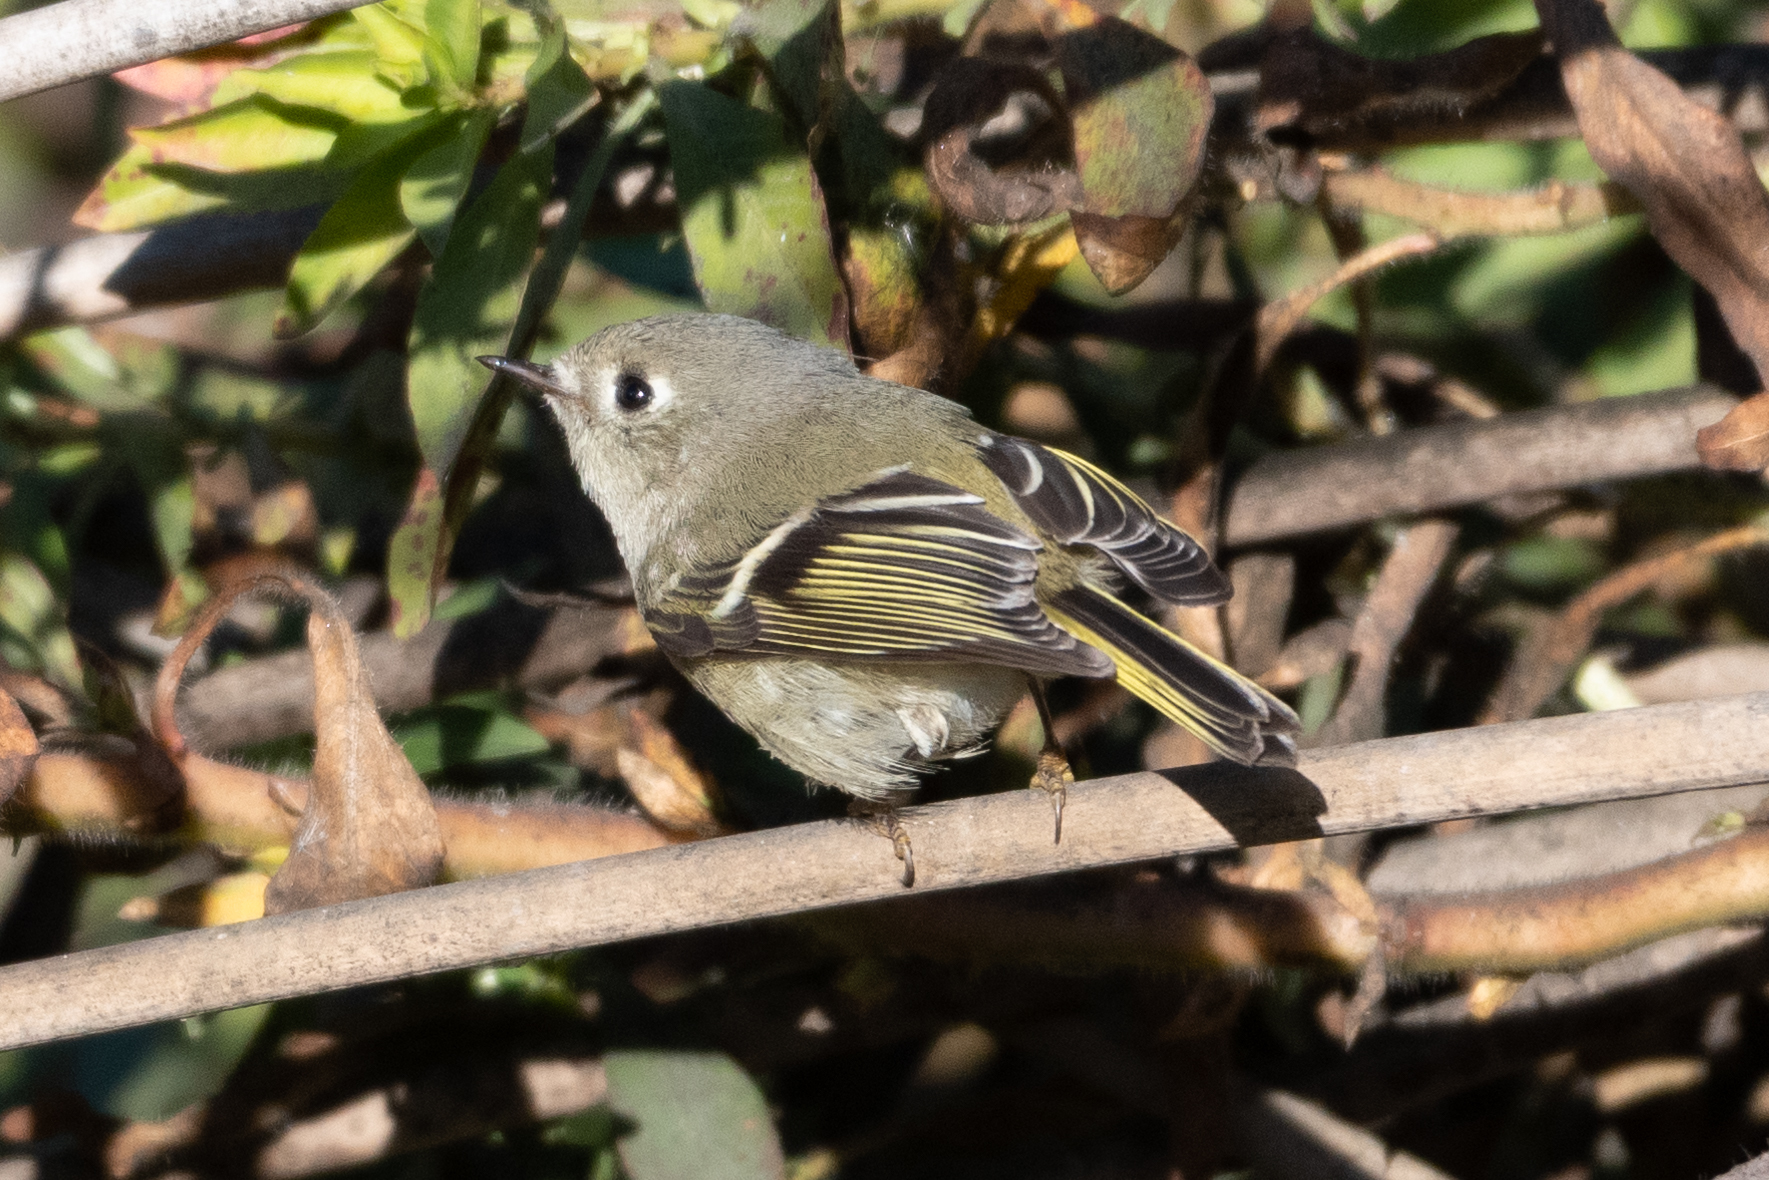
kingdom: Animalia
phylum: Chordata
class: Aves
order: Passeriformes
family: Regulidae
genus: Regulus
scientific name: Regulus calendula
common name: Ruby-crowned kinglet
